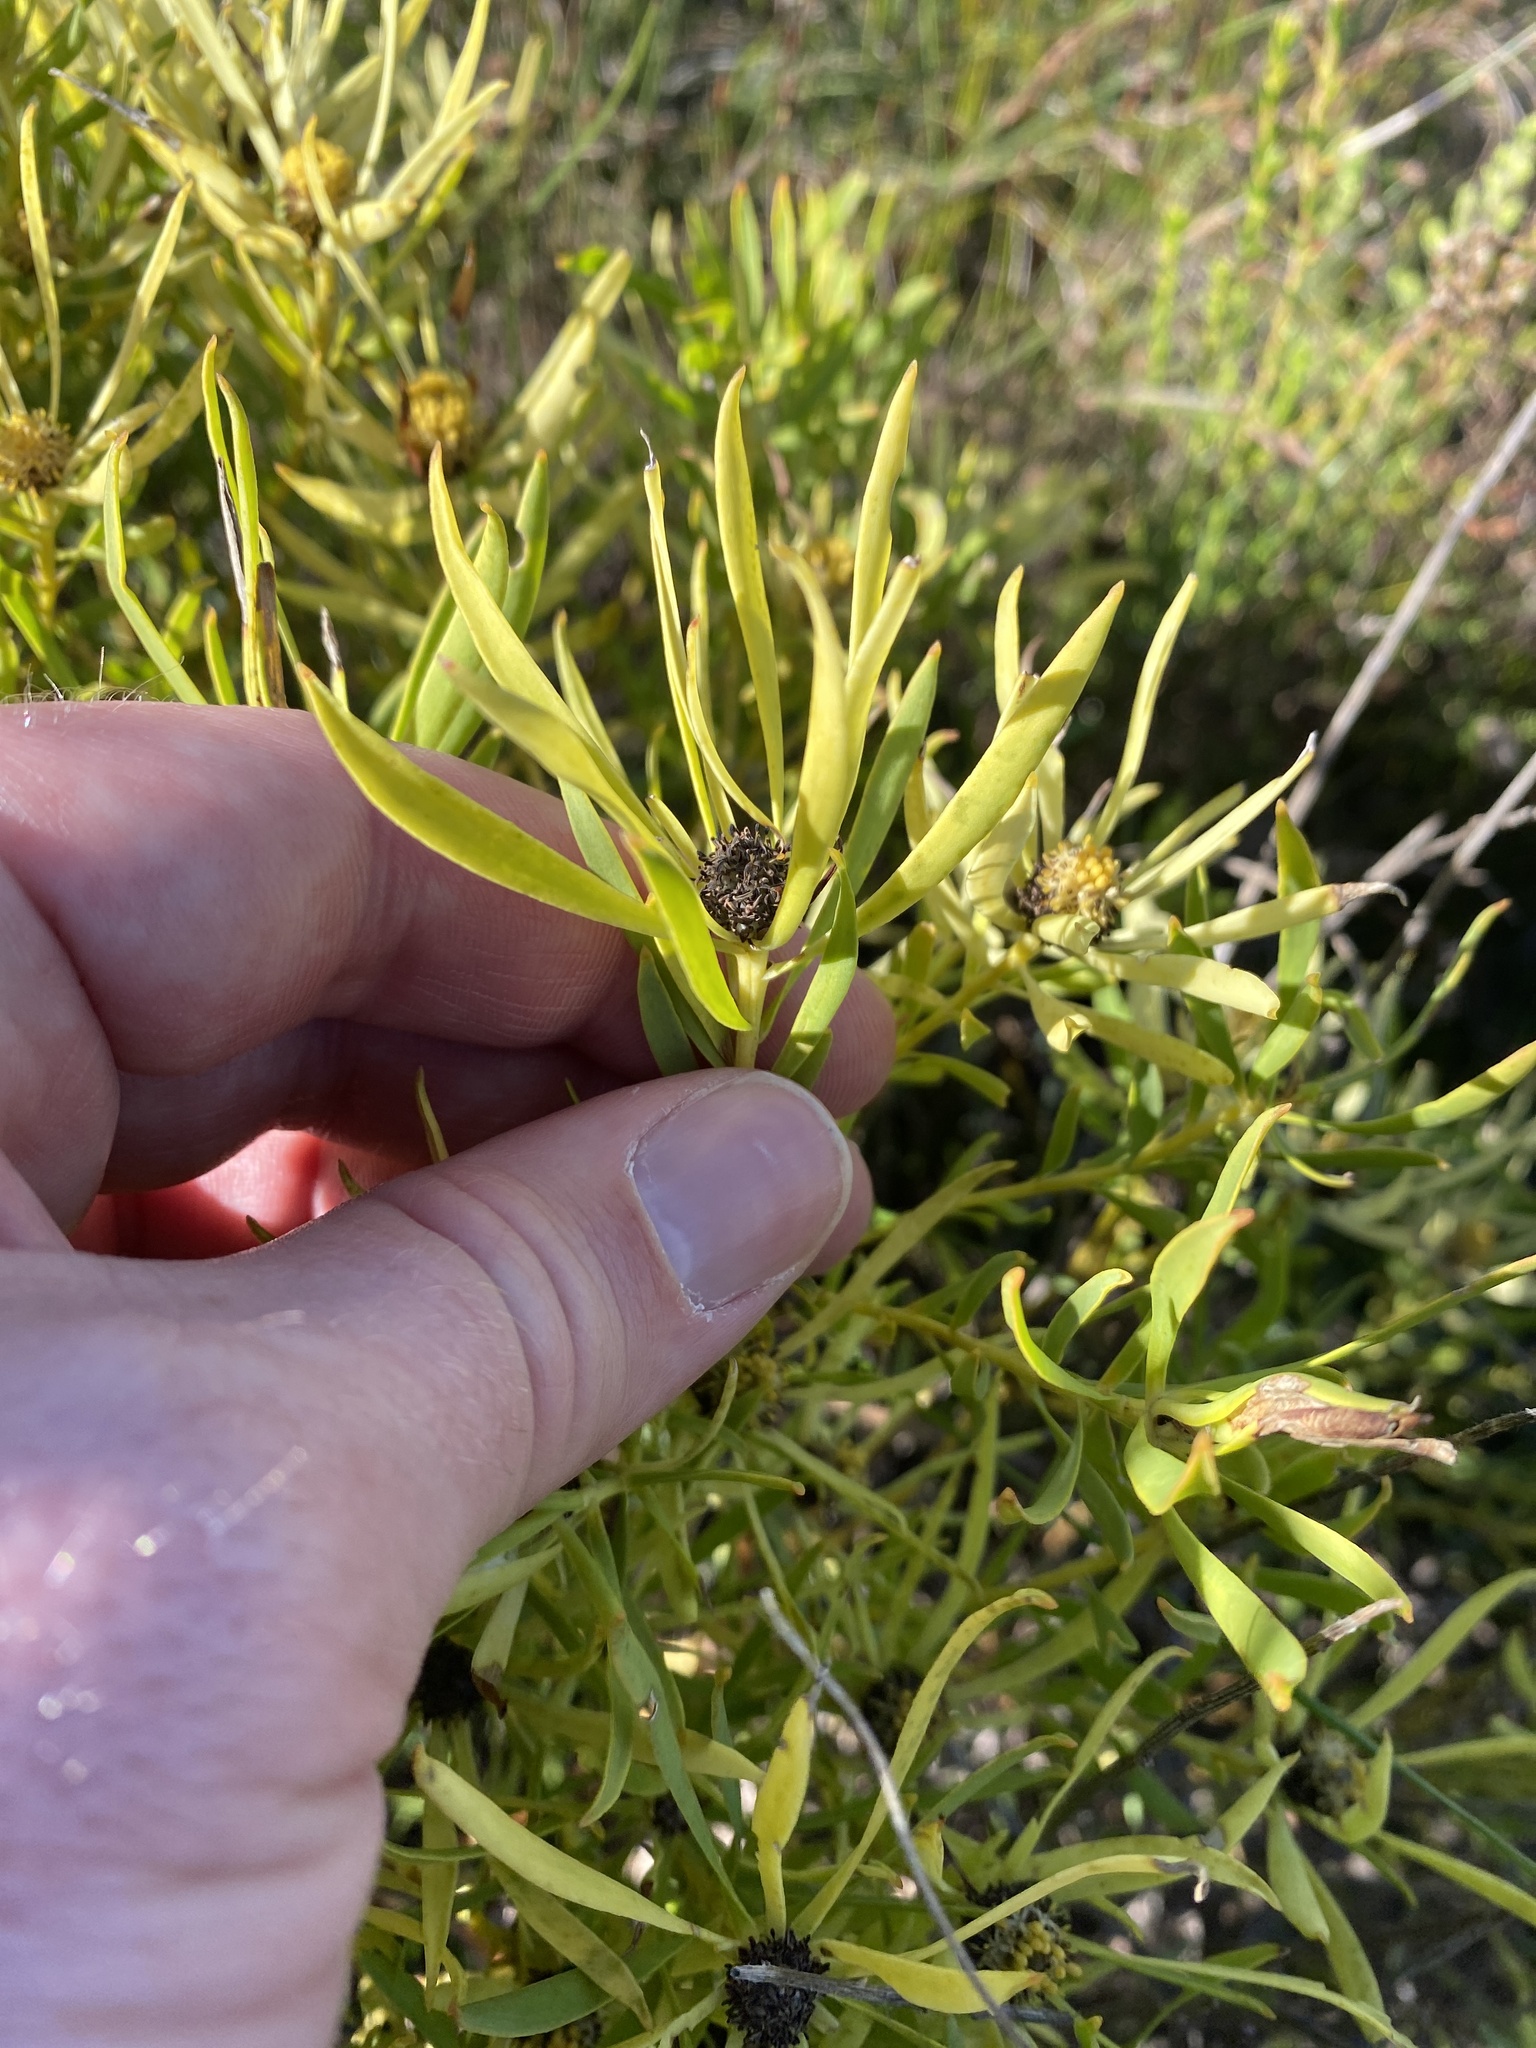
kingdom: Plantae
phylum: Tracheophyta
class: Magnoliopsida
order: Proteales
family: Proteaceae
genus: Leucadendron
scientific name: Leucadendron salignum
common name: Common sunshine conebush
